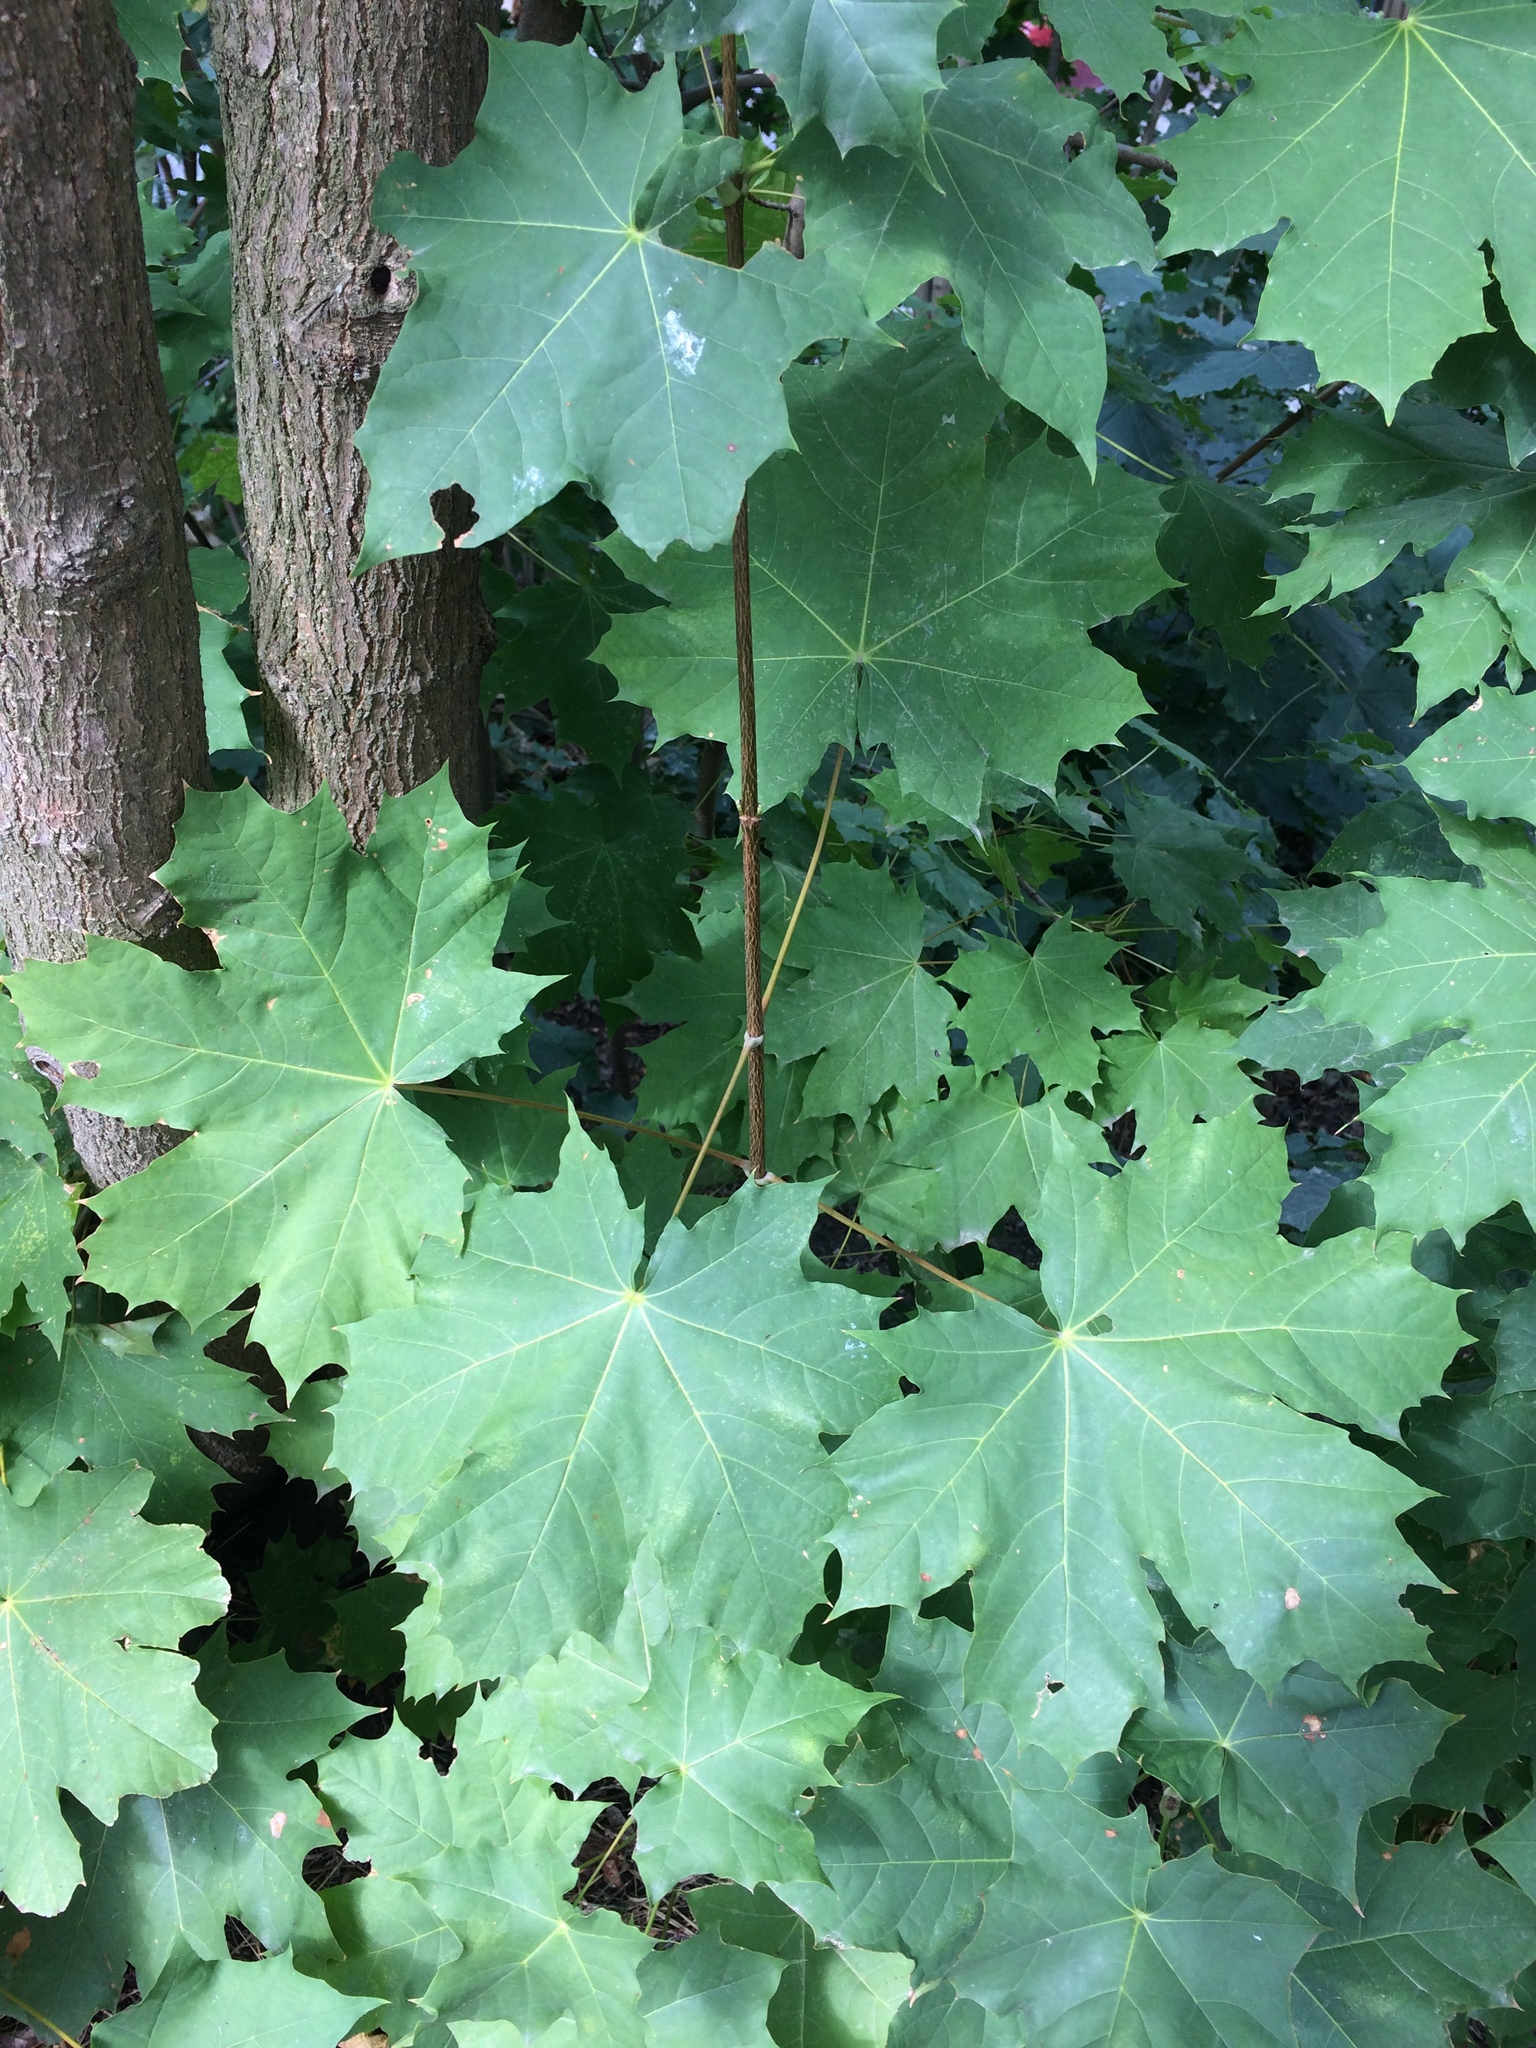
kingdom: Plantae
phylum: Tracheophyta
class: Magnoliopsida
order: Sapindales
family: Sapindaceae
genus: Acer
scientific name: Acer platanoides
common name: Norway maple
